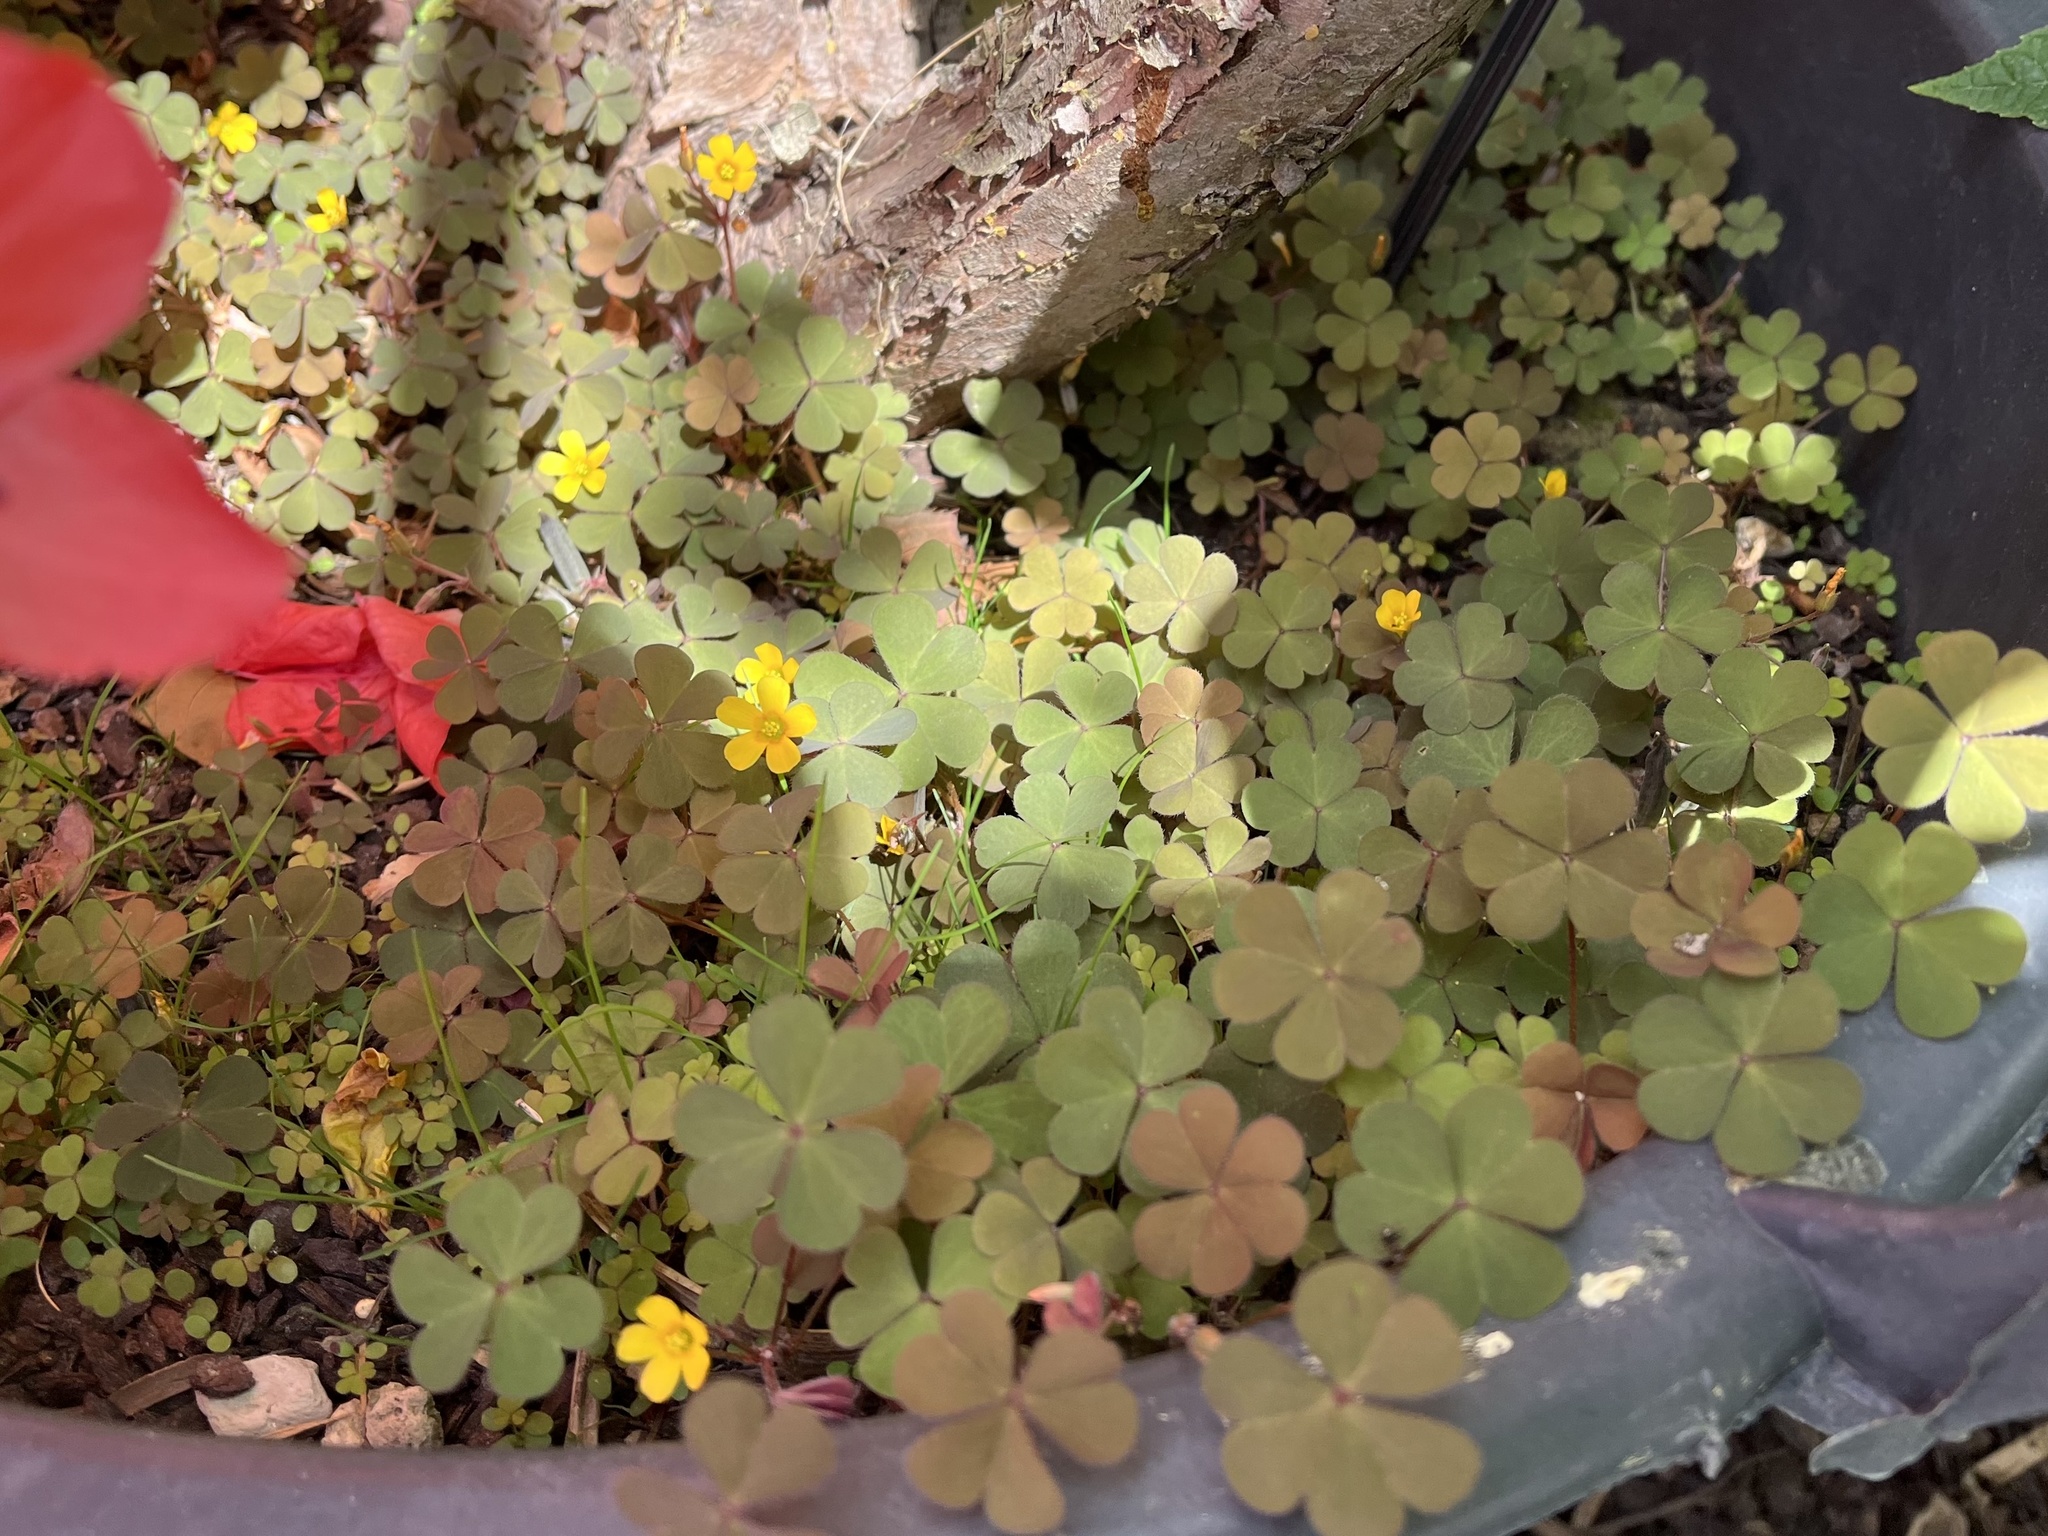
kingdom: Plantae
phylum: Tracheophyta
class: Magnoliopsida
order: Oxalidales
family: Oxalidaceae
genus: Oxalis
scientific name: Oxalis corniculata
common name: Procumbent yellow-sorrel
